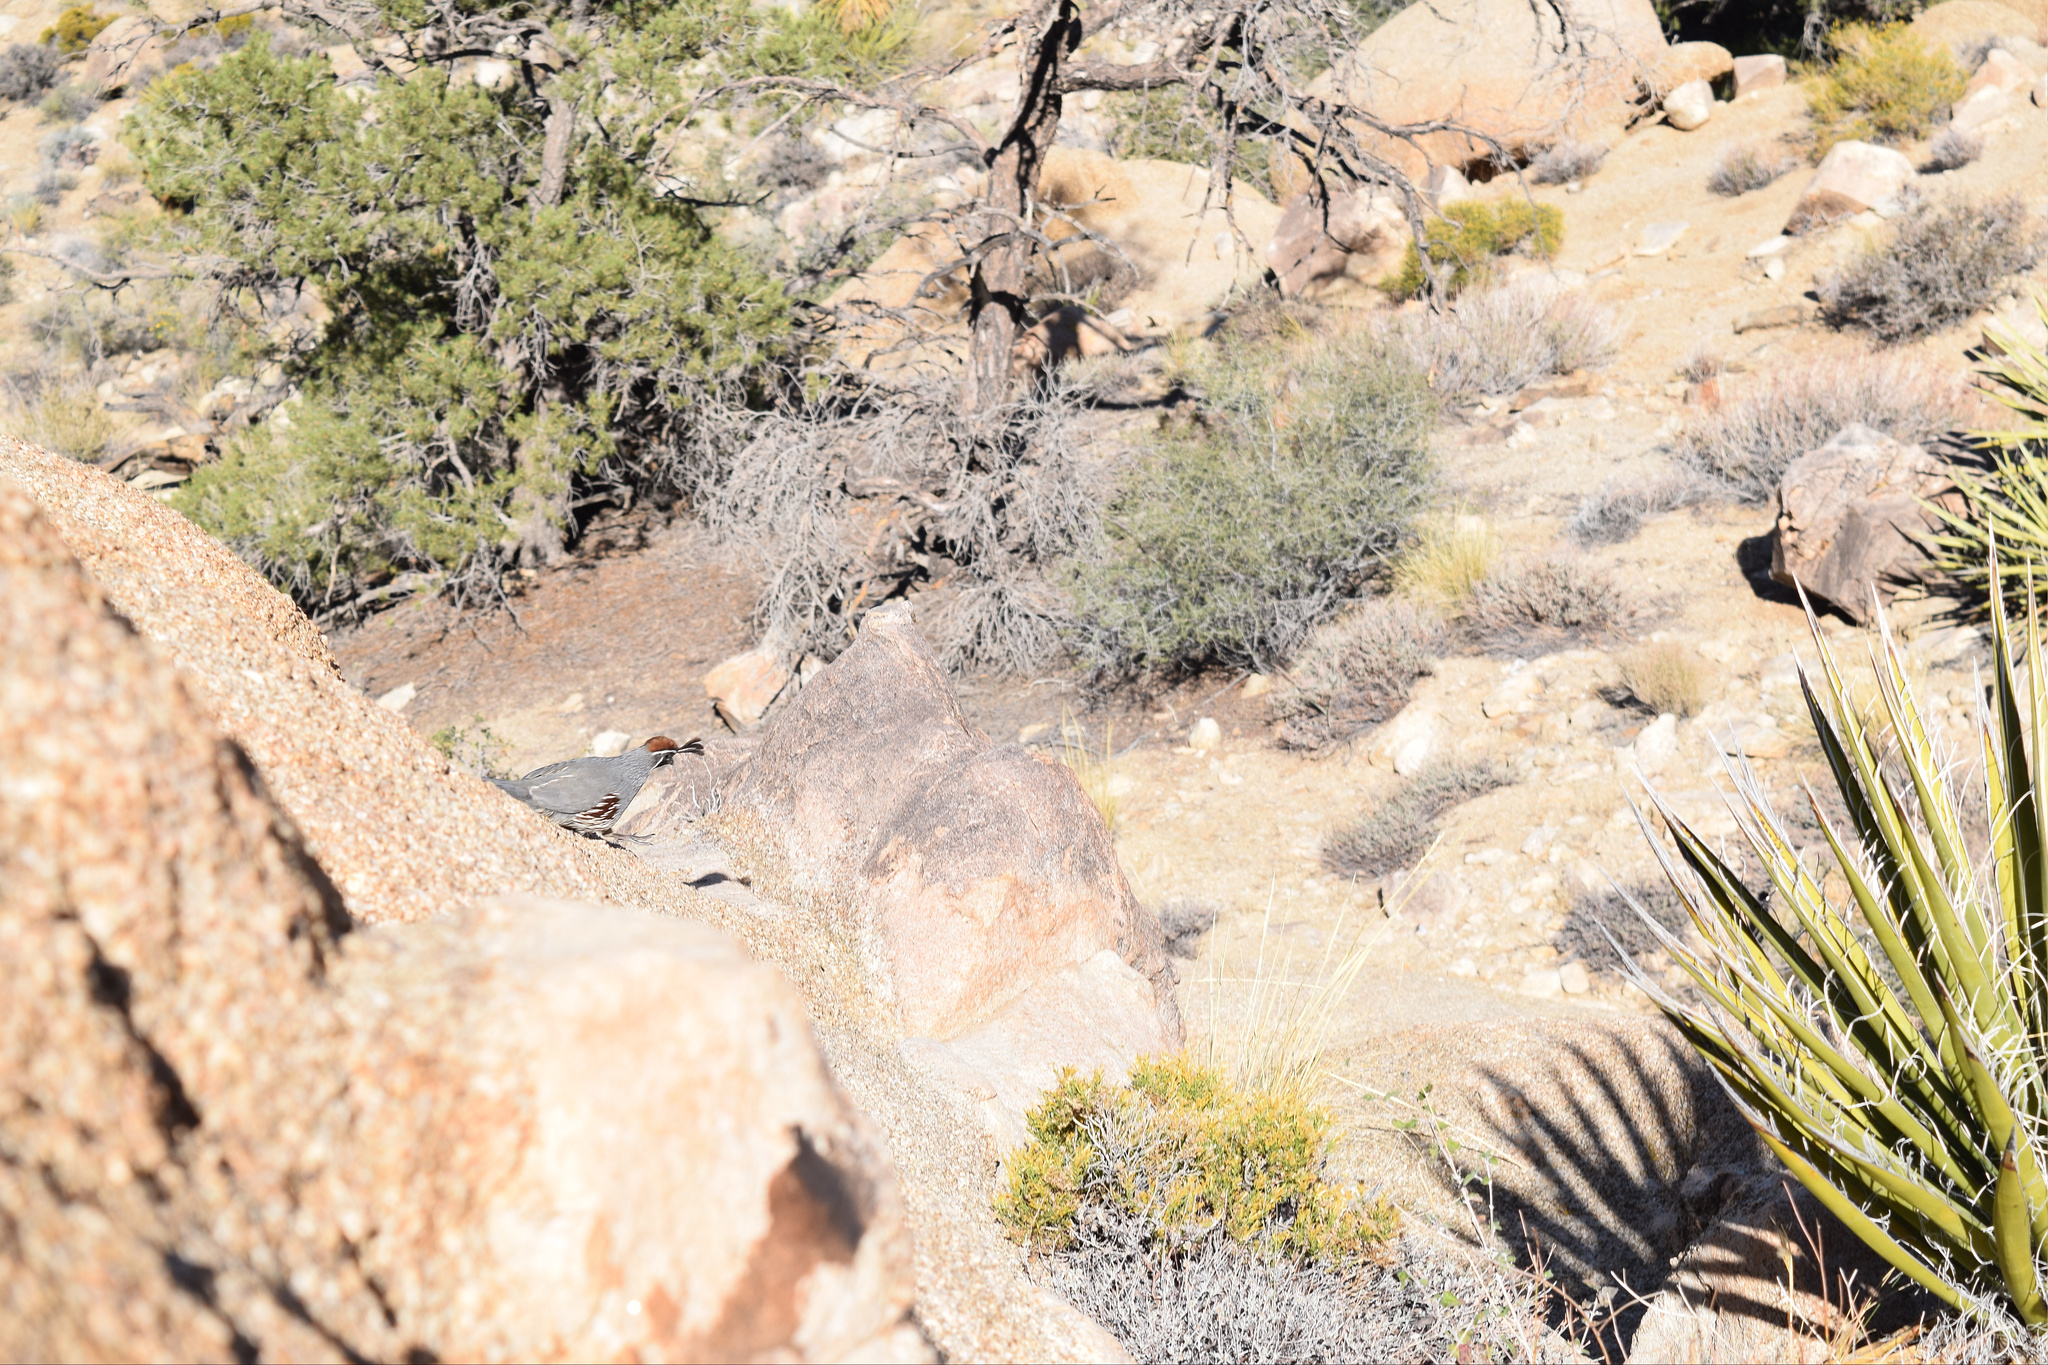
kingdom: Animalia
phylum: Chordata
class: Aves
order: Galliformes
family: Odontophoridae
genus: Callipepla
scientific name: Callipepla gambelii
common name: Gambel's quail
